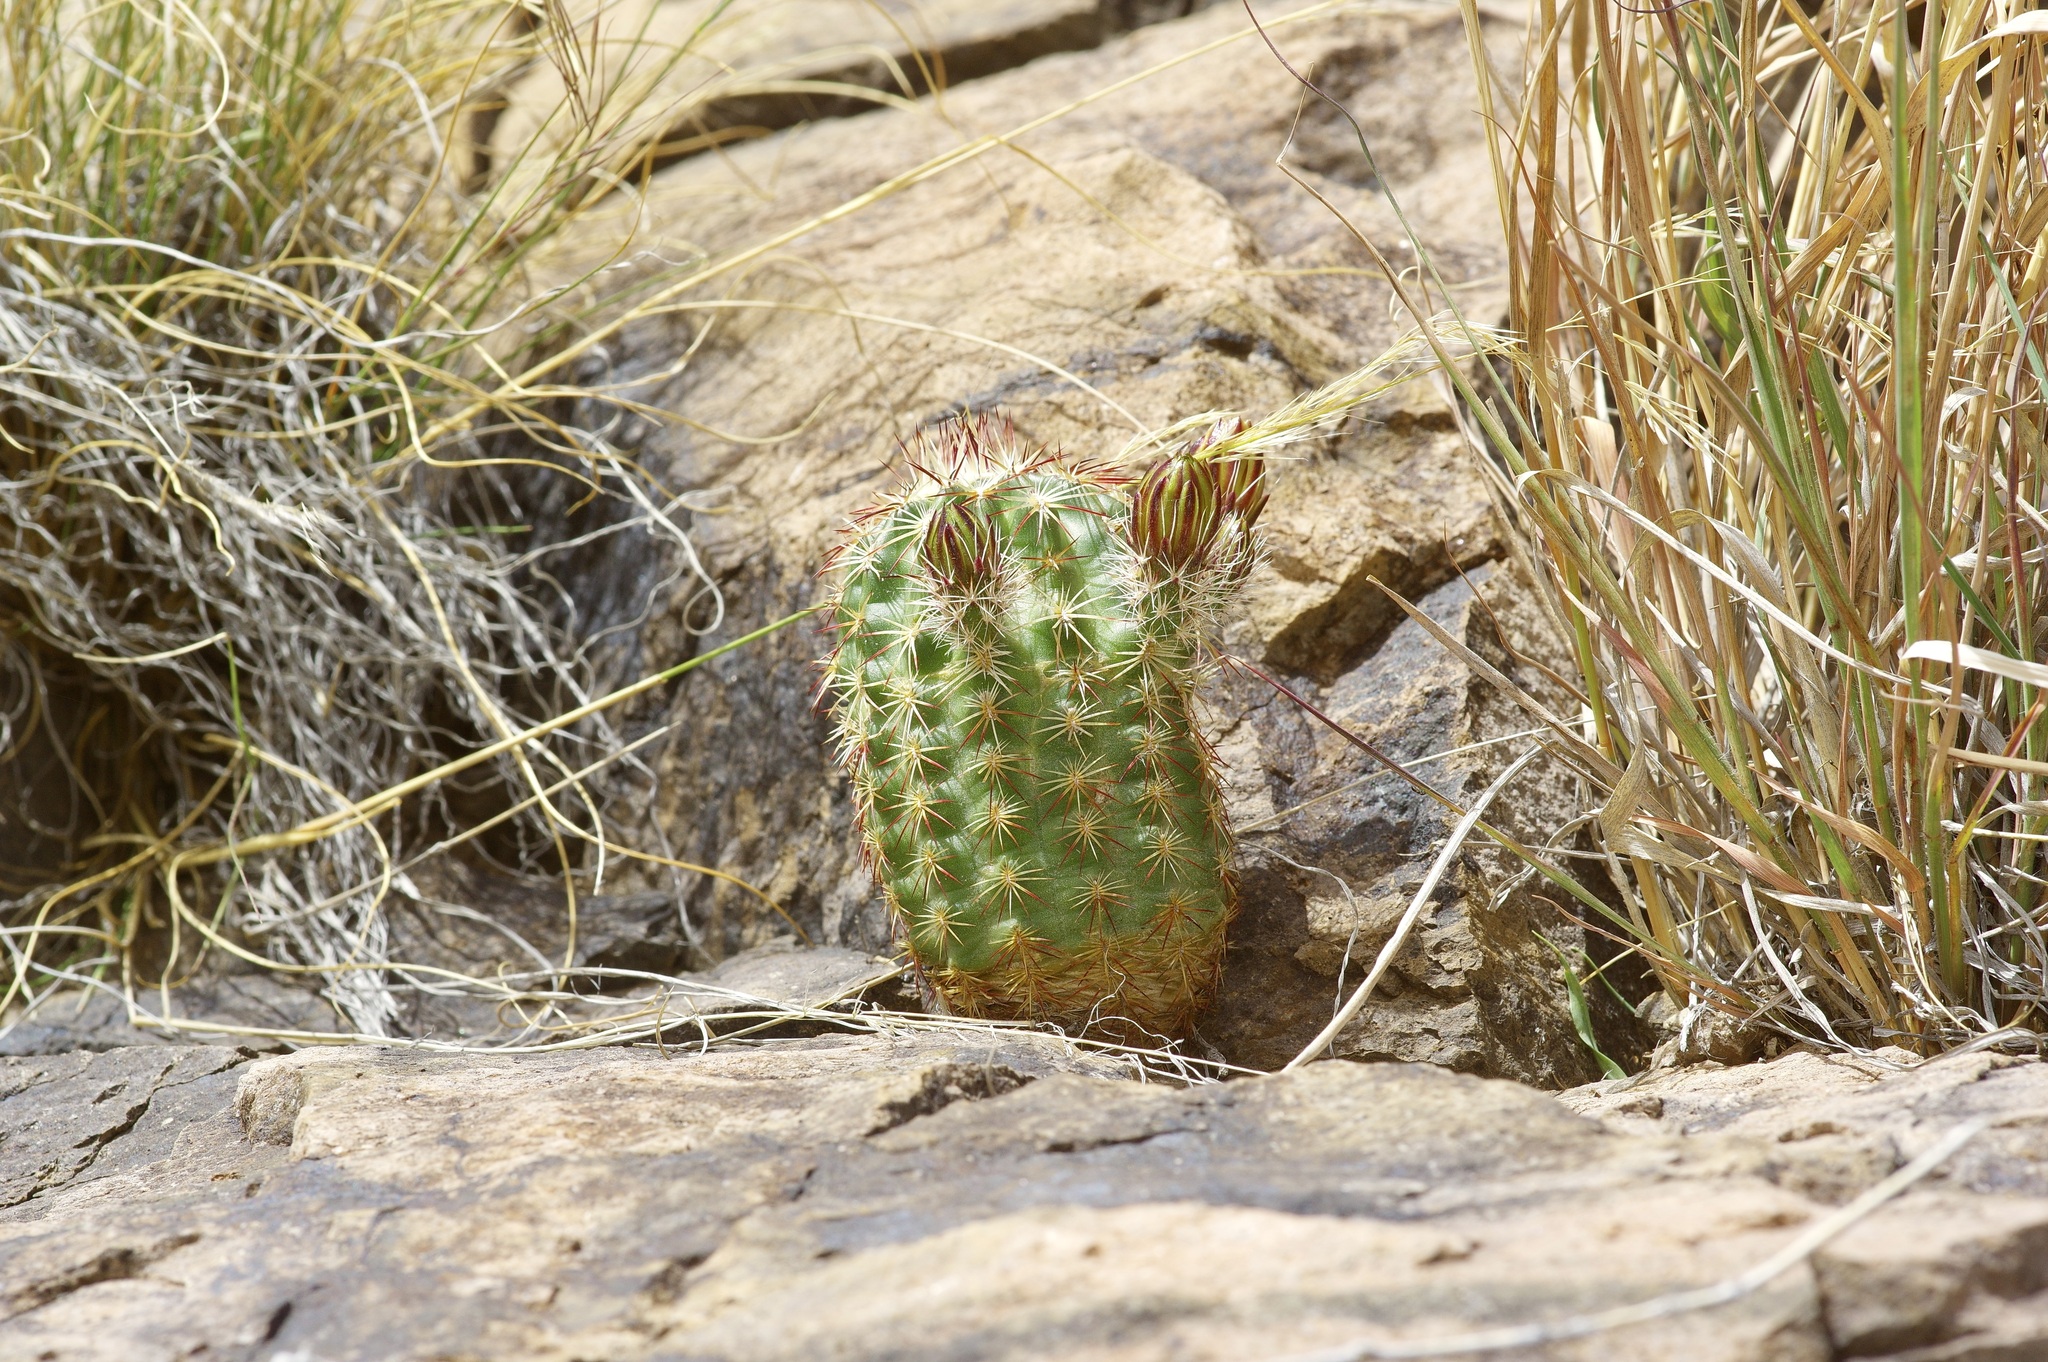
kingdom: Plantae
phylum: Tracheophyta
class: Magnoliopsida
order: Caryophyllales
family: Cactaceae
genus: Echinocereus
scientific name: Echinocereus viridiflorus
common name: Nylon hedgehog cactus
